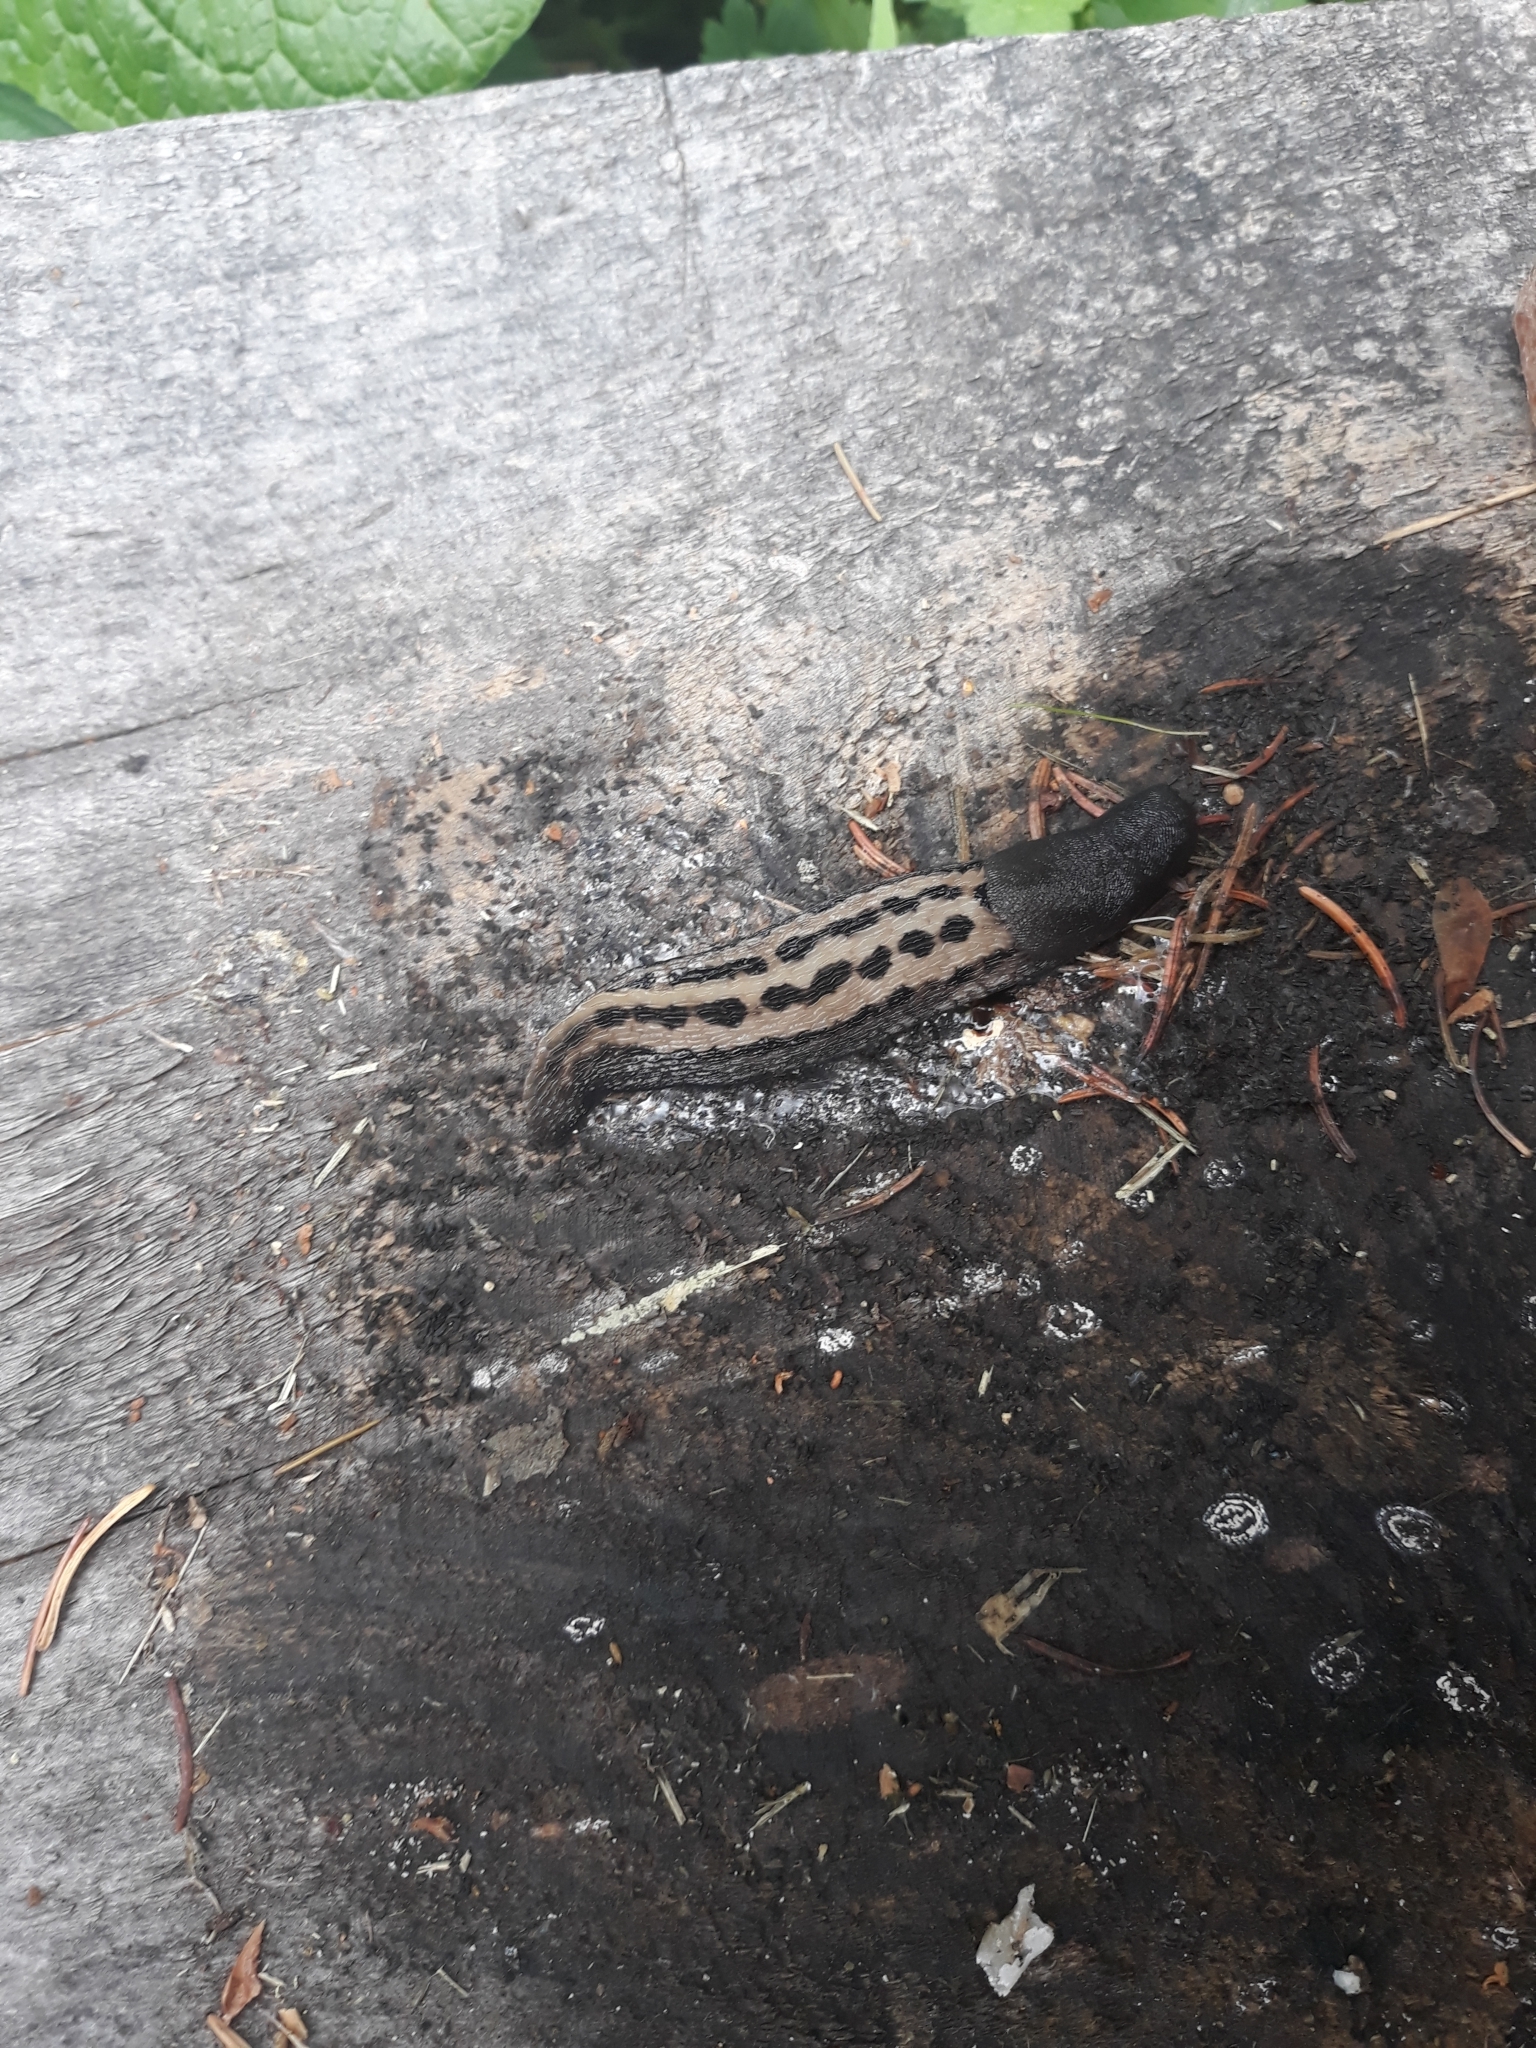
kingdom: Animalia
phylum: Mollusca
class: Gastropoda
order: Stylommatophora
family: Limacidae
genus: Limax
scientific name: Limax cinereoniger
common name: Ash-black slug
